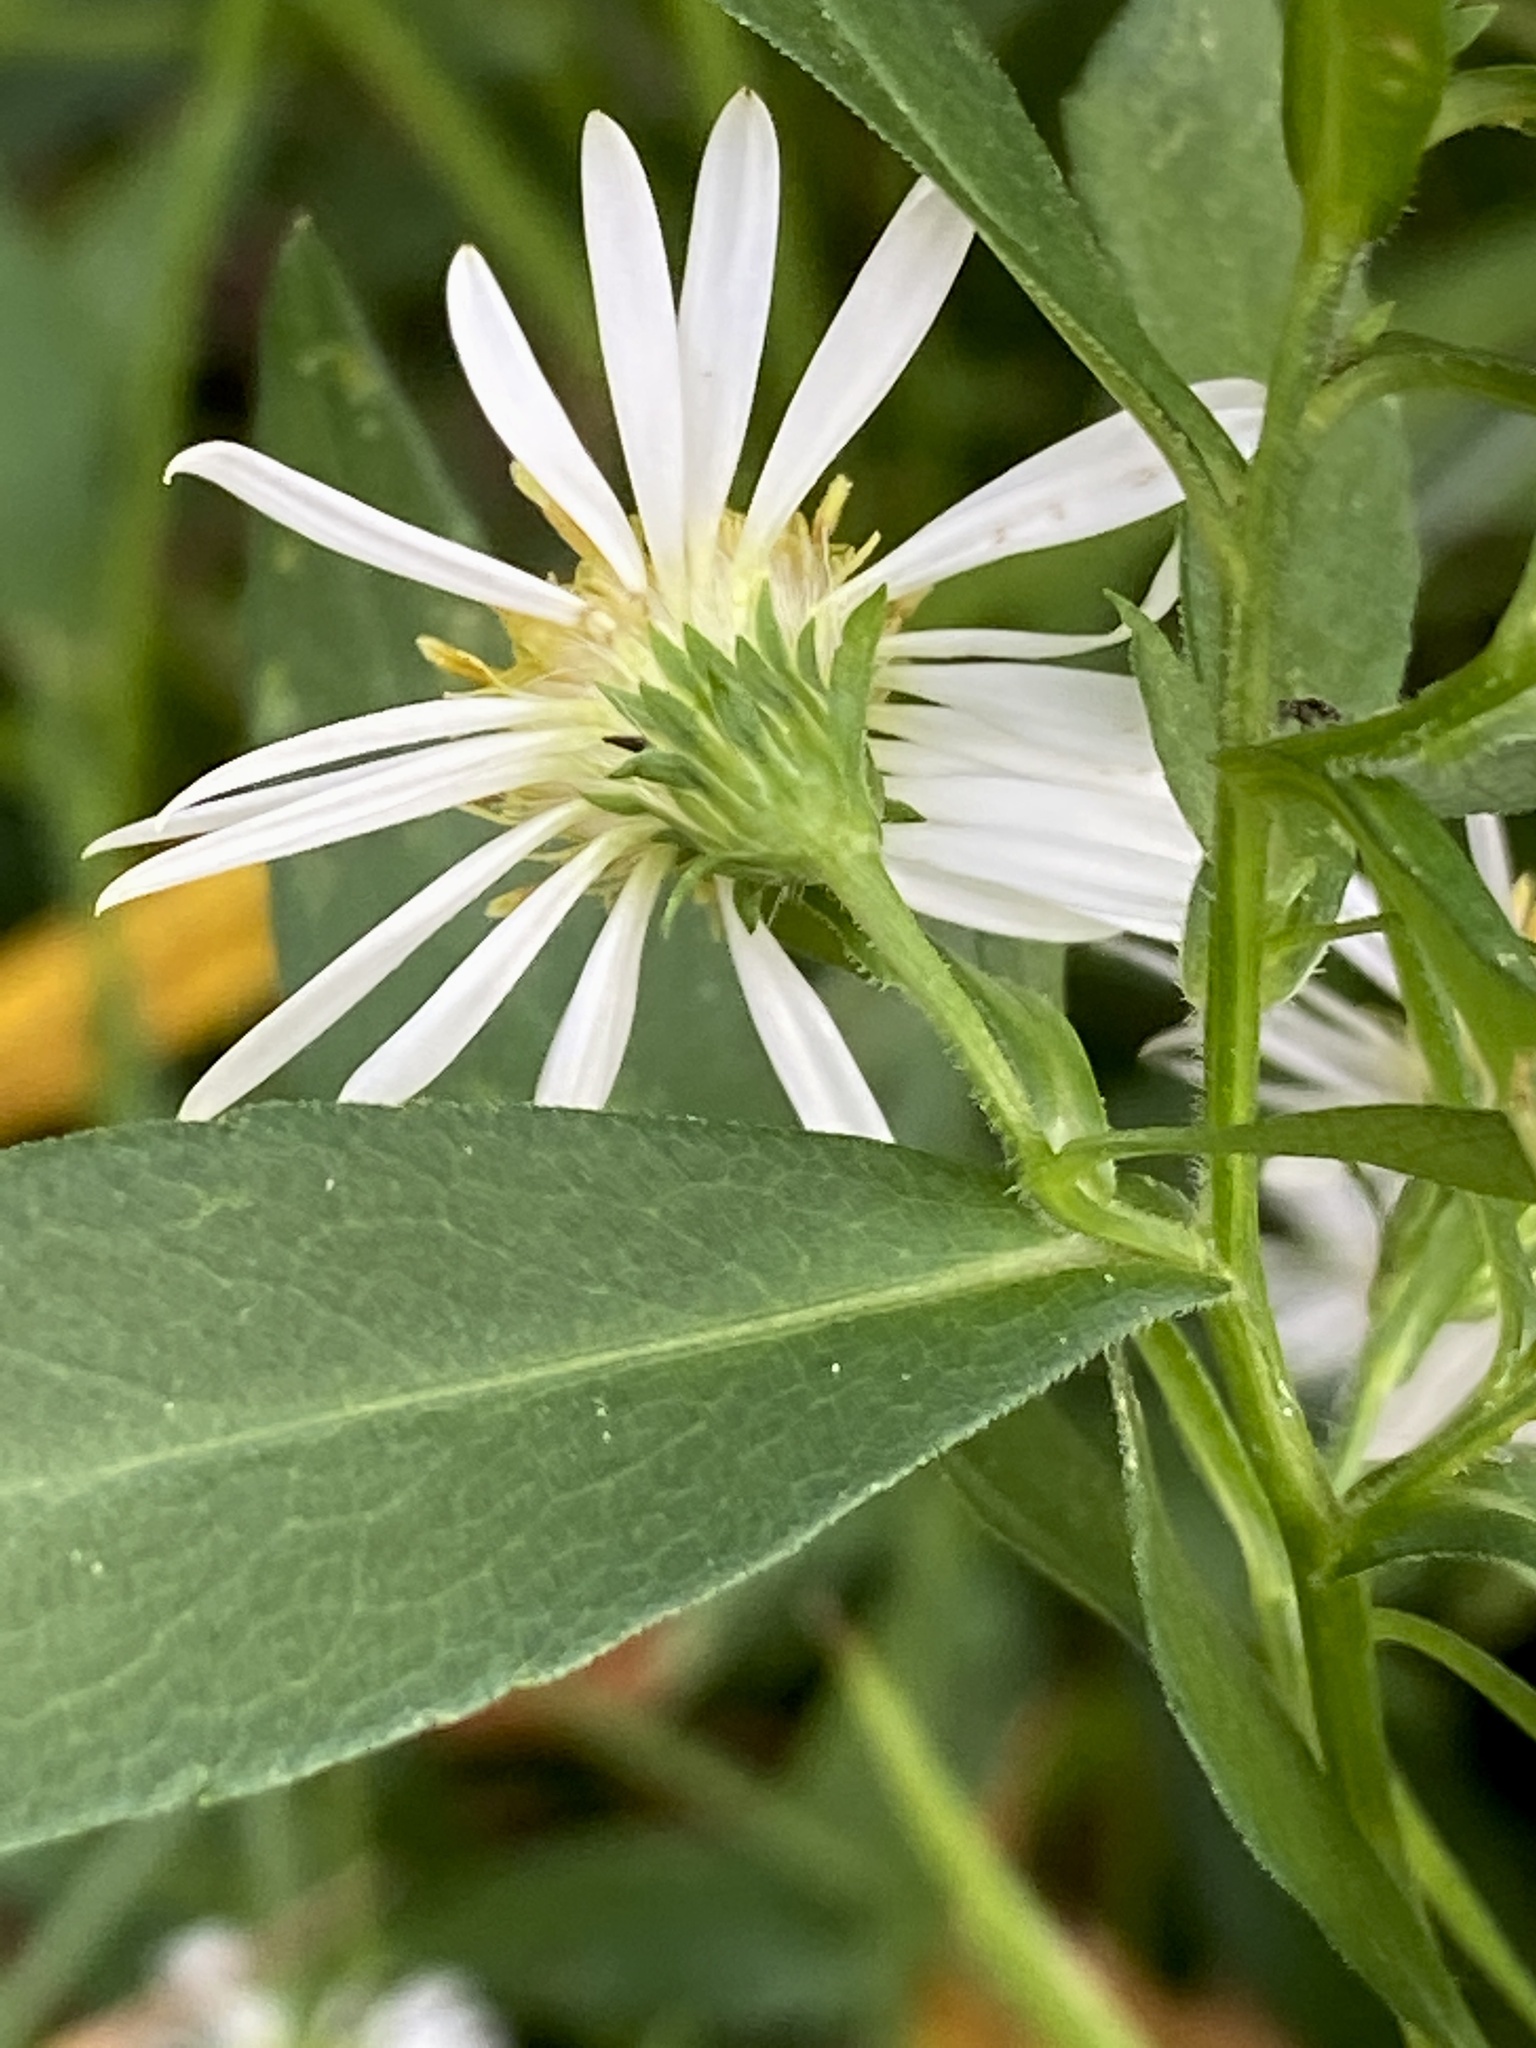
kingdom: Plantae
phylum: Tracheophyta
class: Magnoliopsida
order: Asterales
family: Asteraceae
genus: Symphyotrichum
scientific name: Symphyotrichum lanceolatum
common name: Panicled aster
